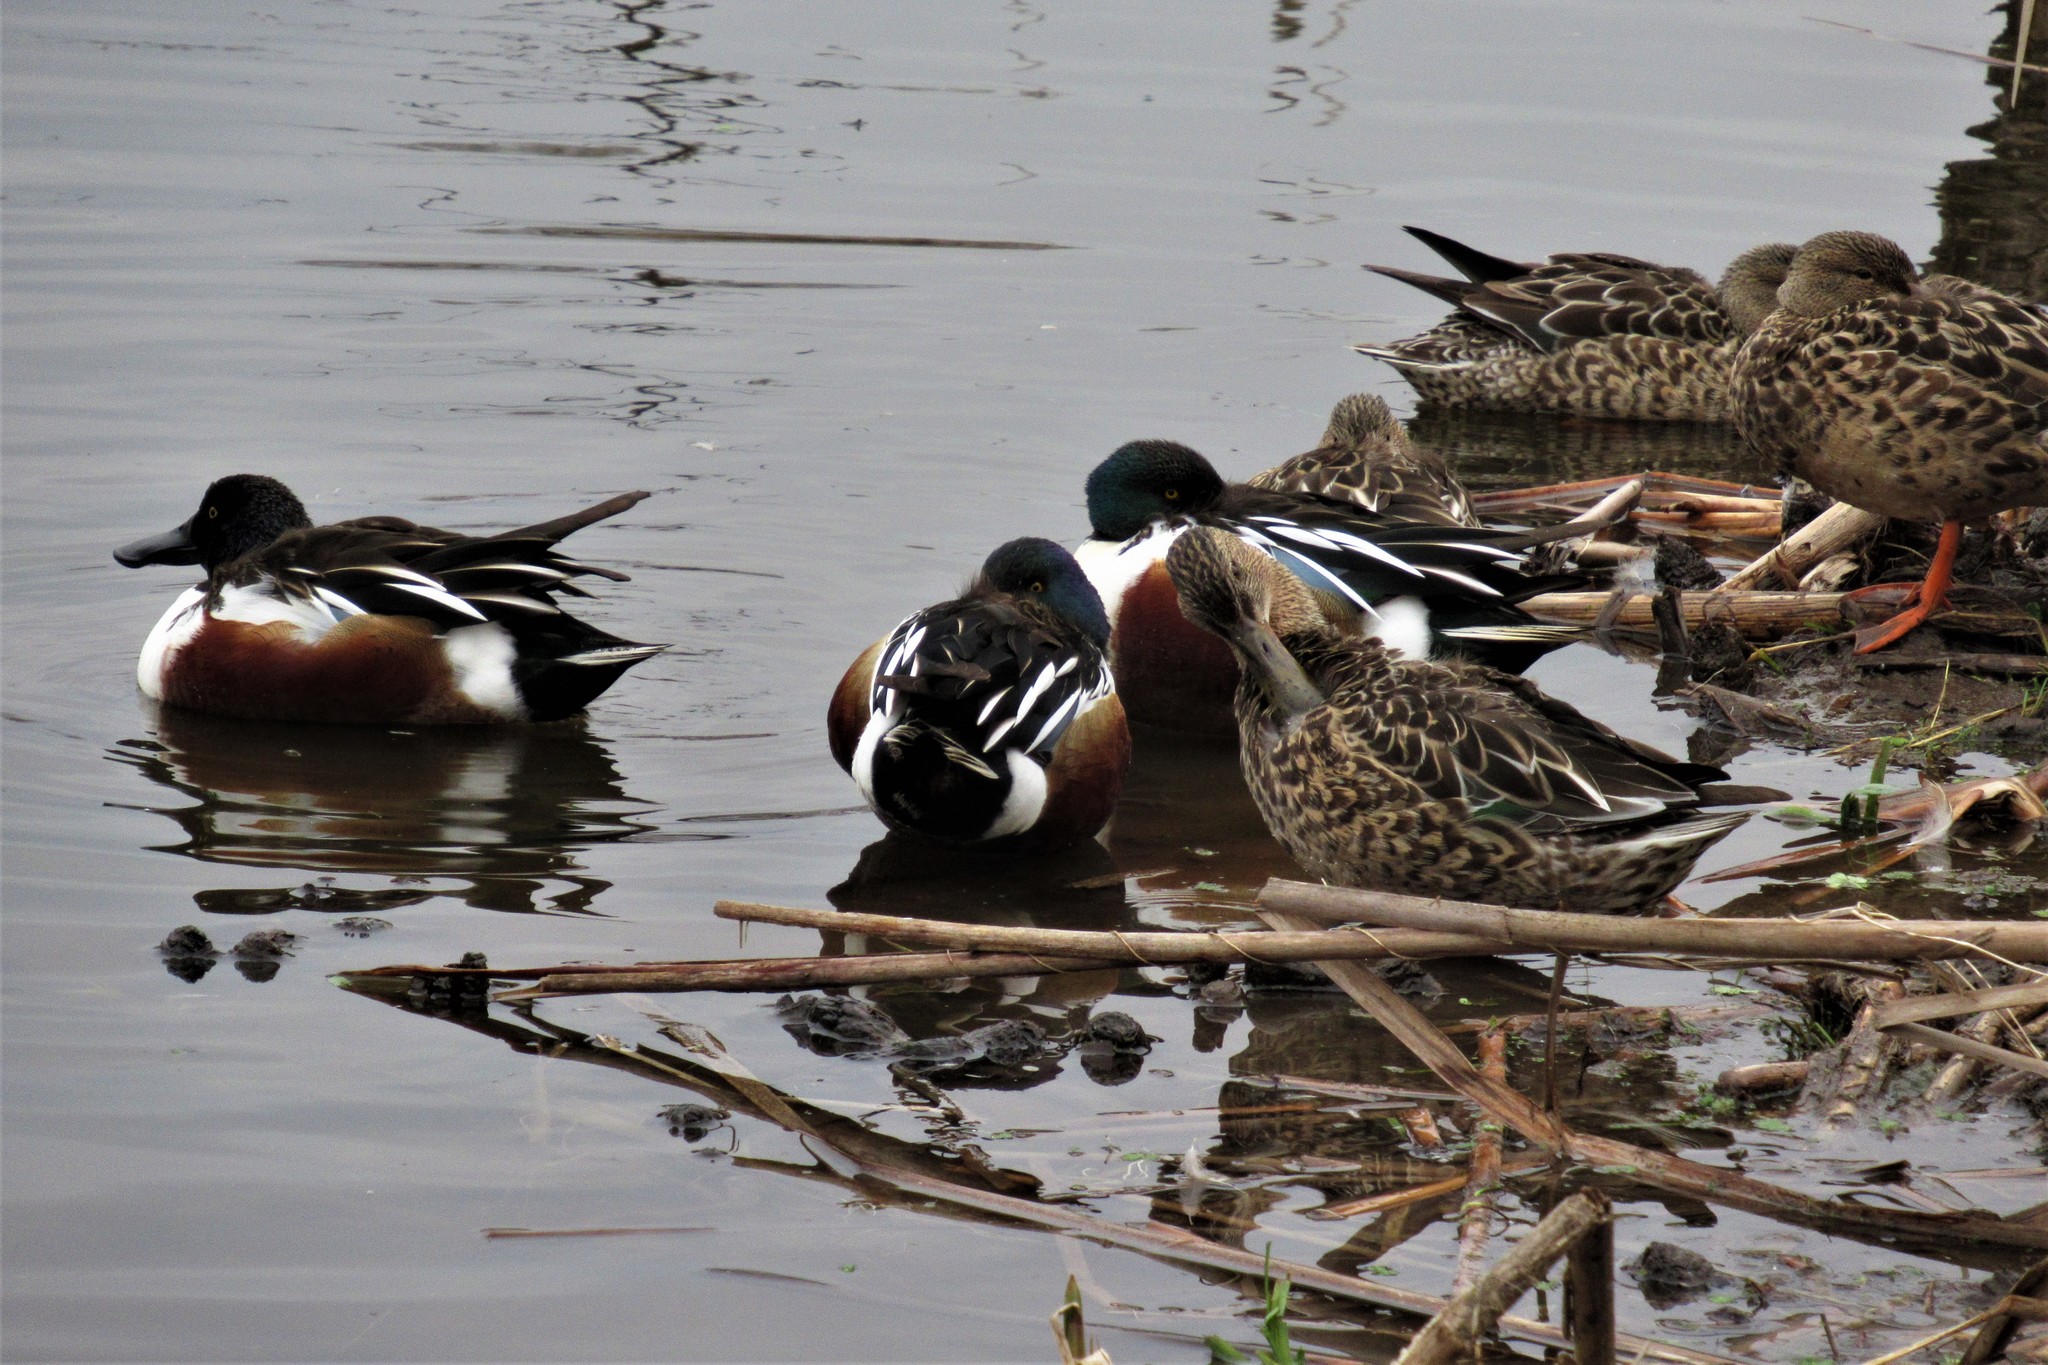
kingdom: Animalia
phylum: Chordata
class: Aves
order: Anseriformes
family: Anatidae
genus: Spatula
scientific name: Spatula clypeata
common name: Northern shoveler
